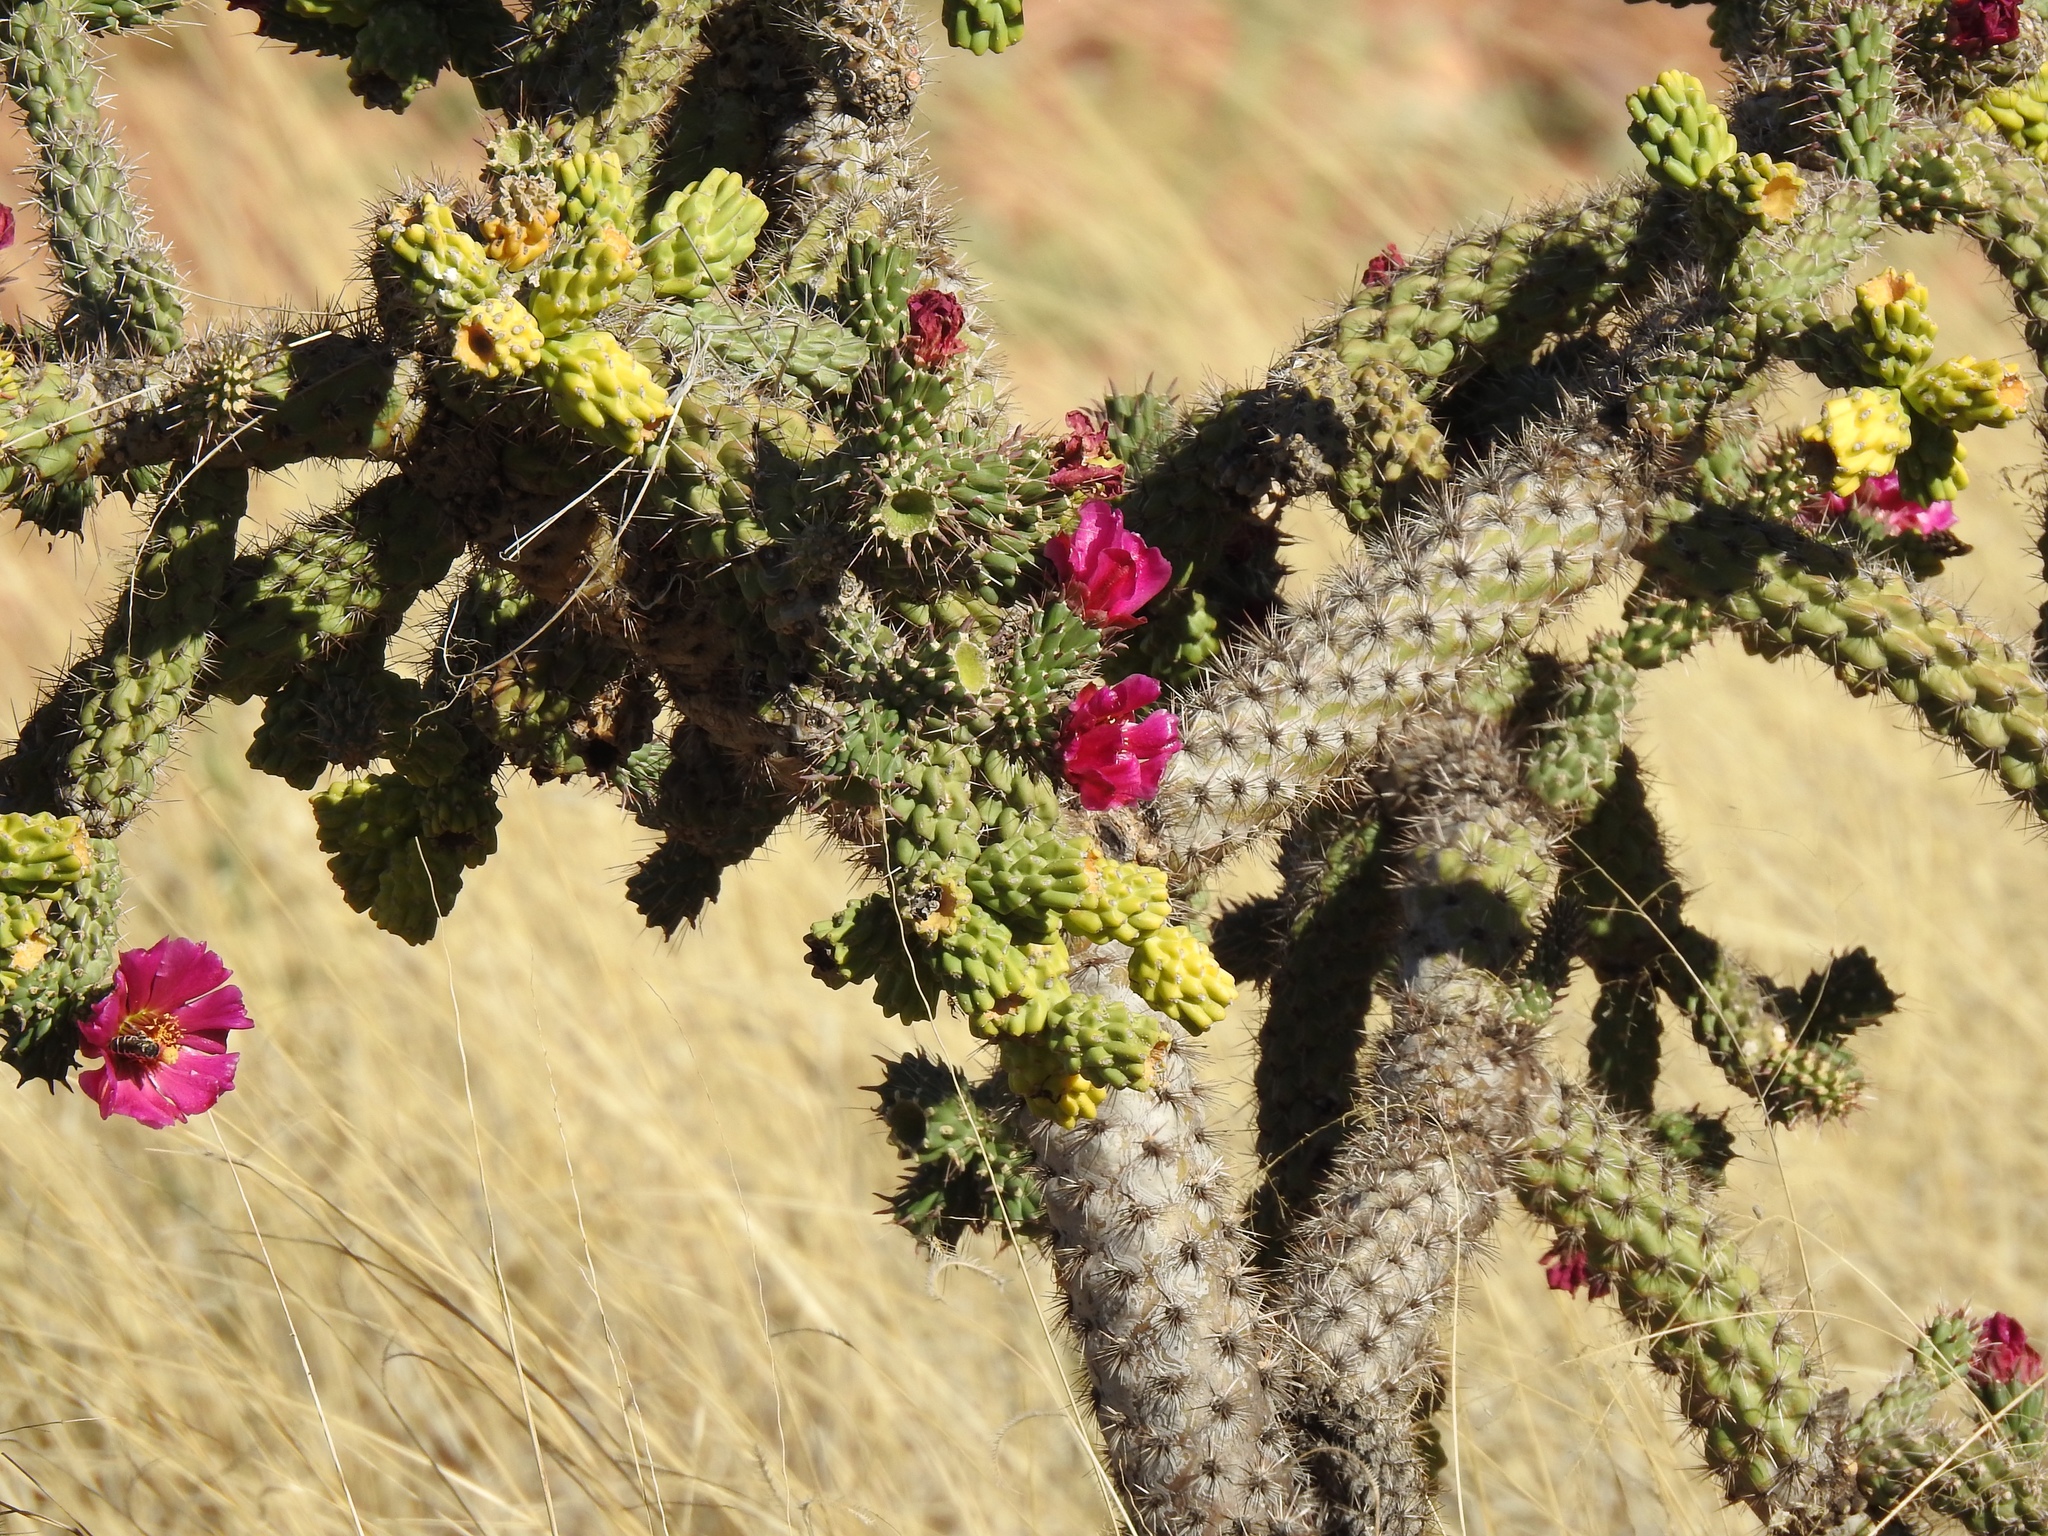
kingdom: Plantae
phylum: Tracheophyta
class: Magnoliopsida
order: Caryophyllales
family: Cactaceae
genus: Cylindropuntia
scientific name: Cylindropuntia imbricata
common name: Candelabrum cactus
